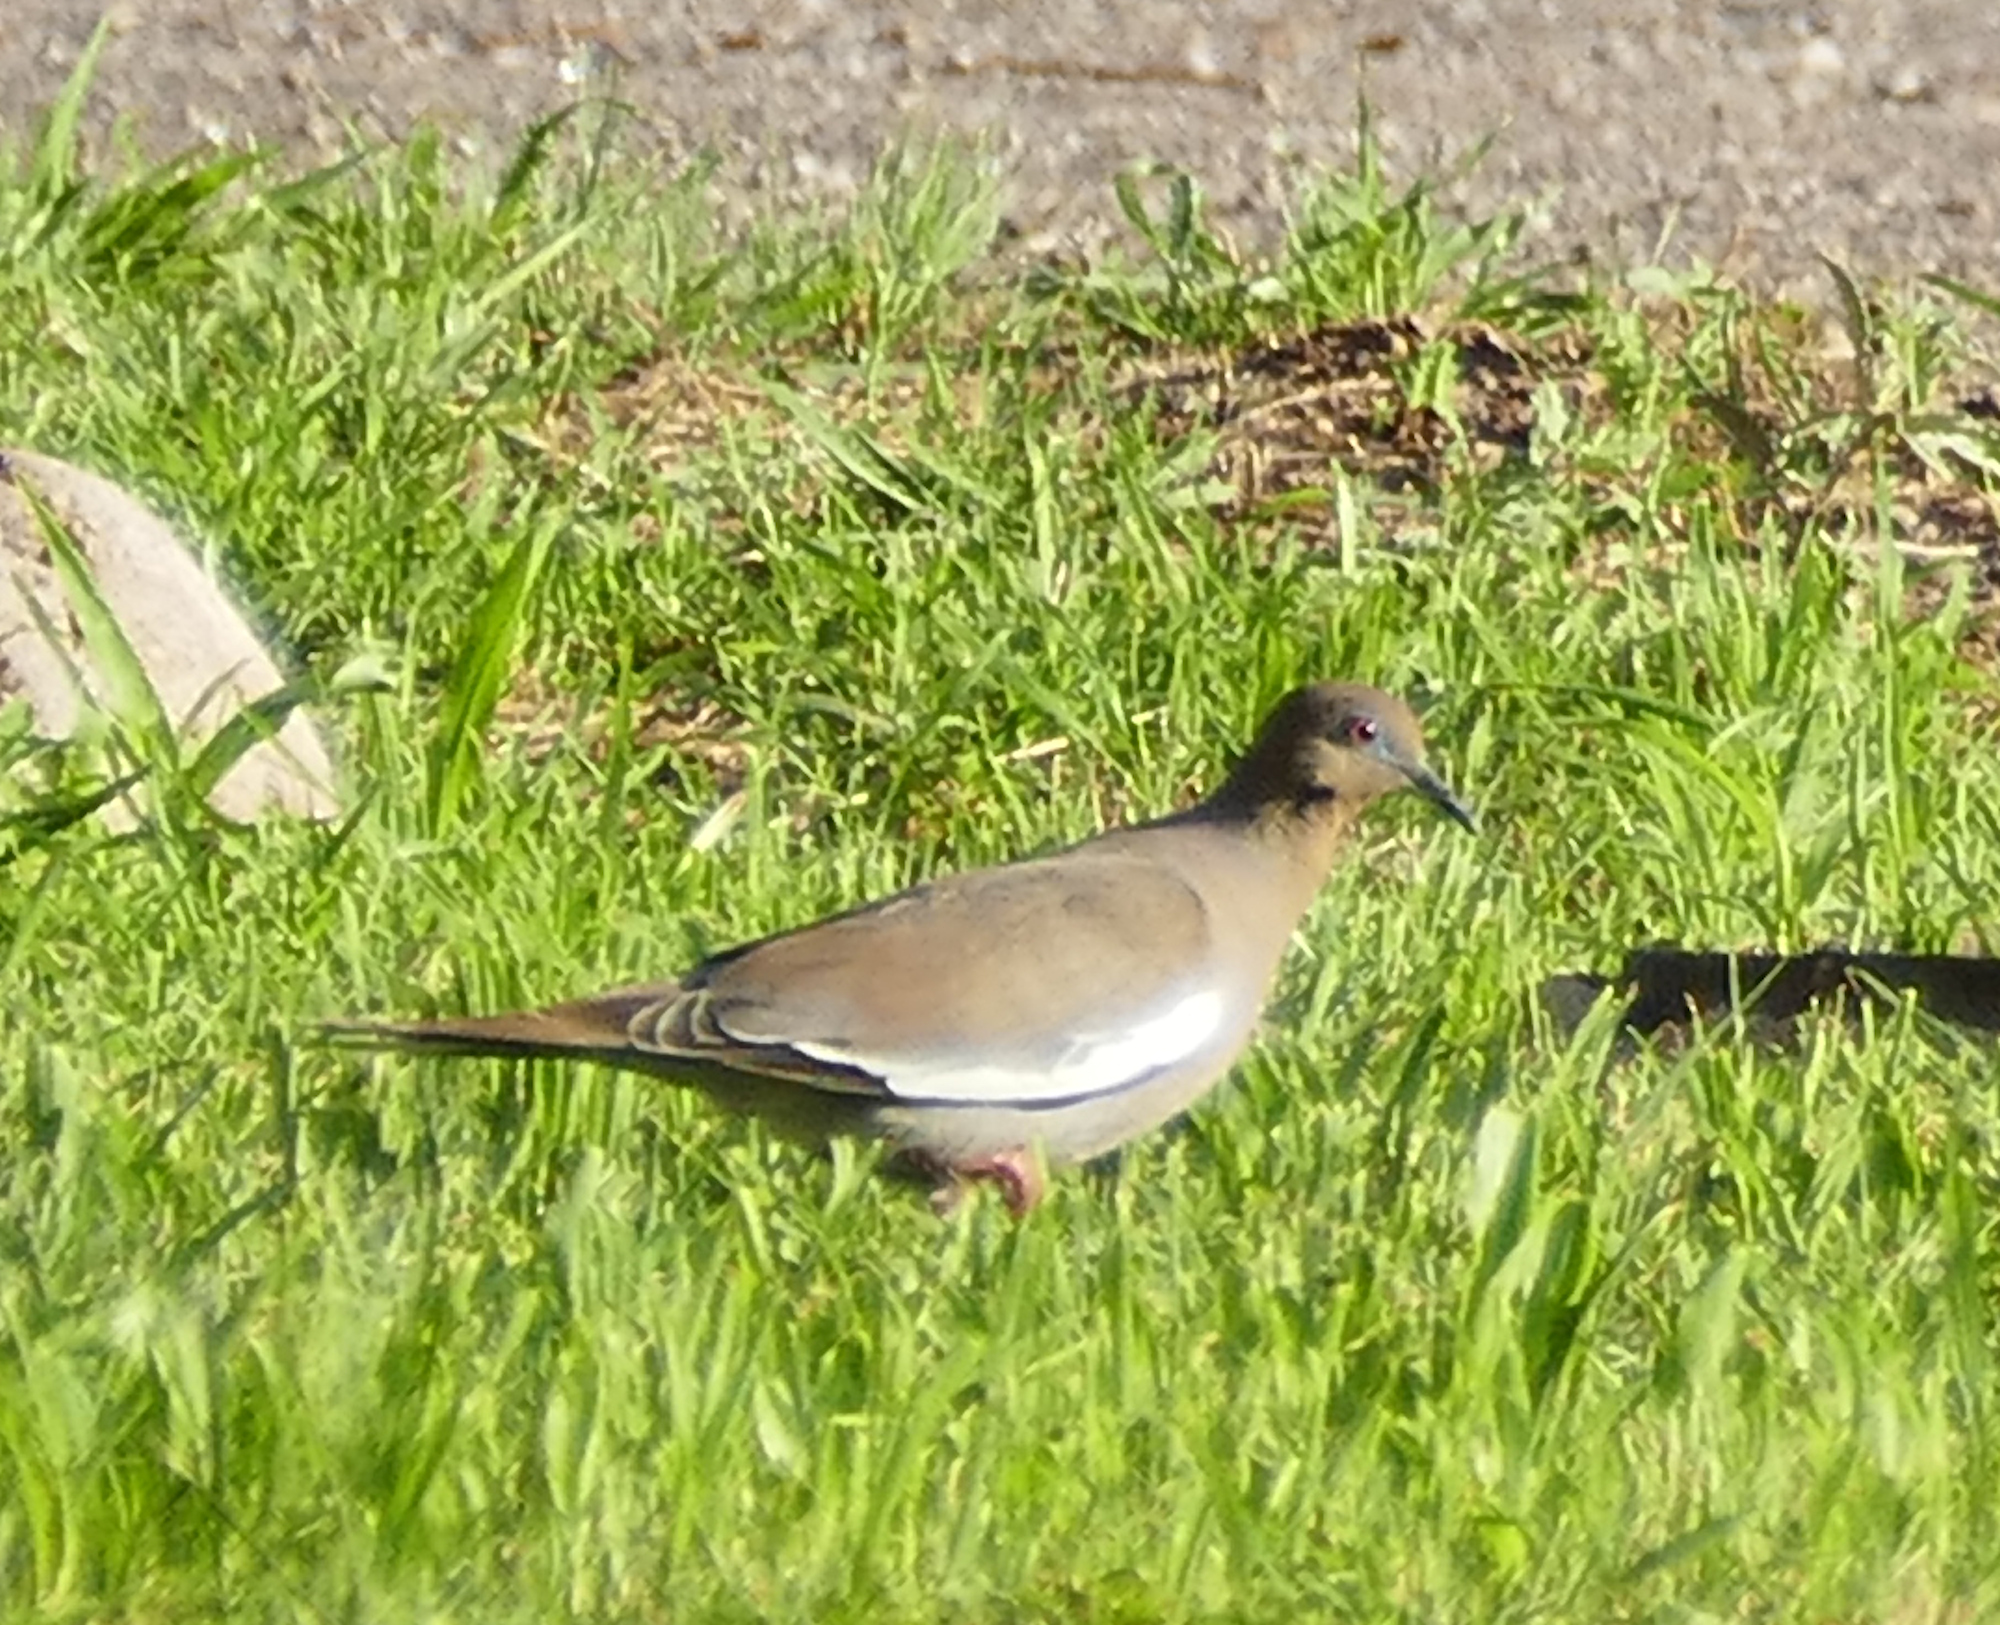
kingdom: Animalia
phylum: Chordata
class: Aves
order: Columbiformes
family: Columbidae
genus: Zenaida
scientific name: Zenaida asiatica
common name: White-winged dove
